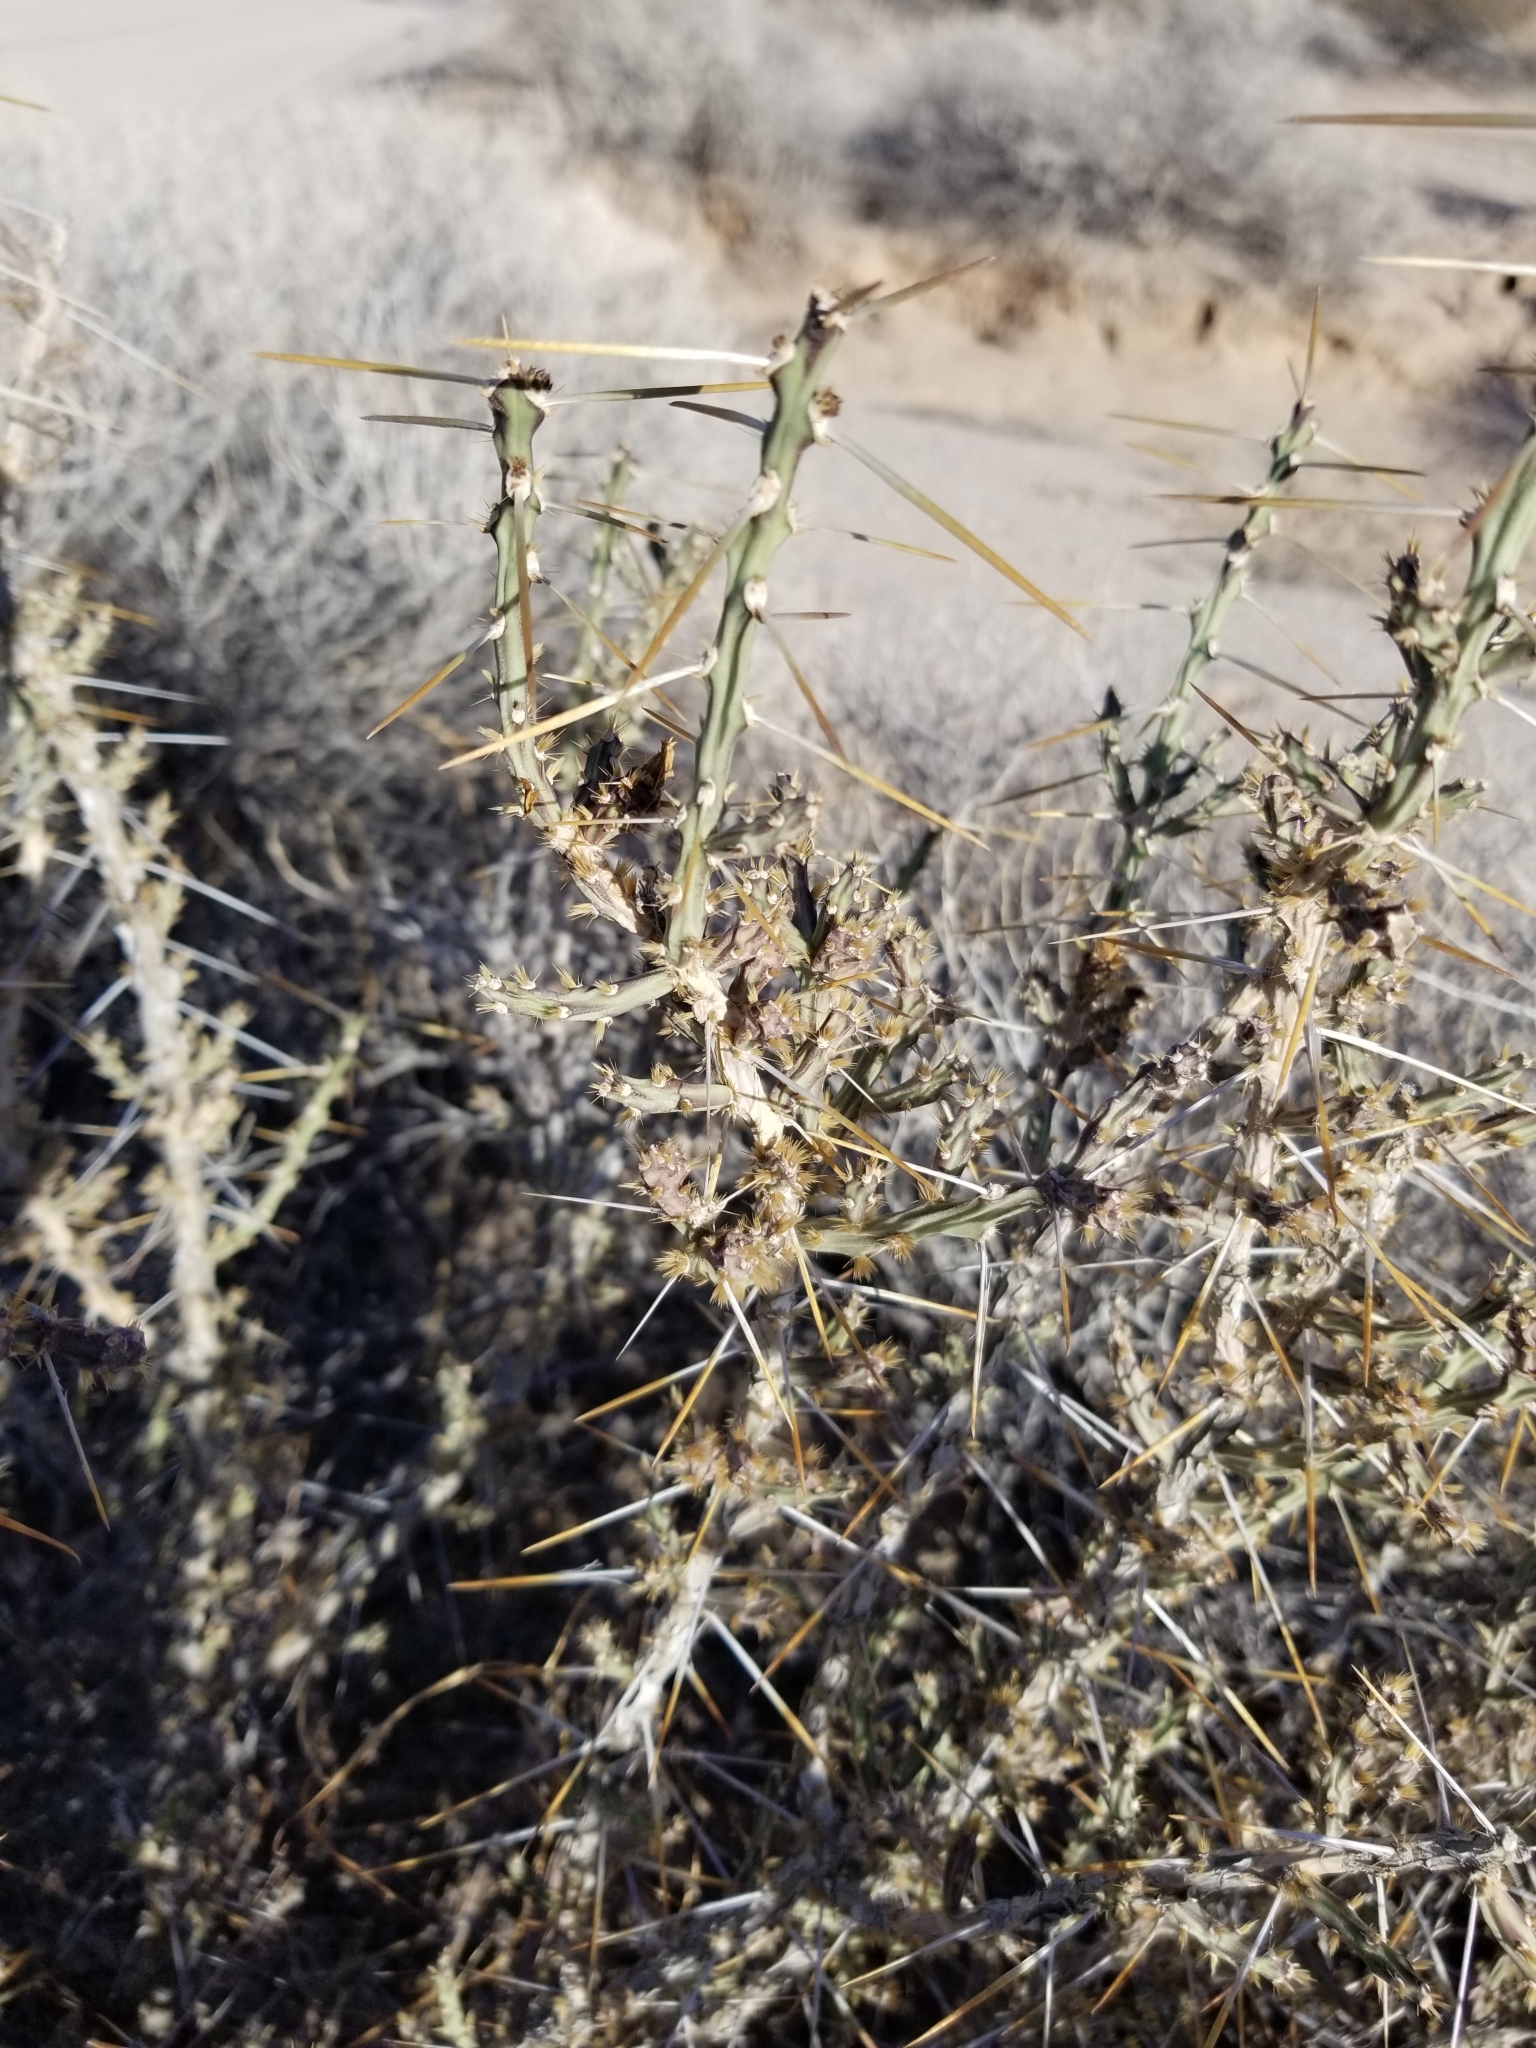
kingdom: Plantae
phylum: Tracheophyta
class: Magnoliopsida
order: Caryophyllales
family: Cactaceae
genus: Cylindropuntia
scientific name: Cylindropuntia leptocaulis
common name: Christmas cactus
